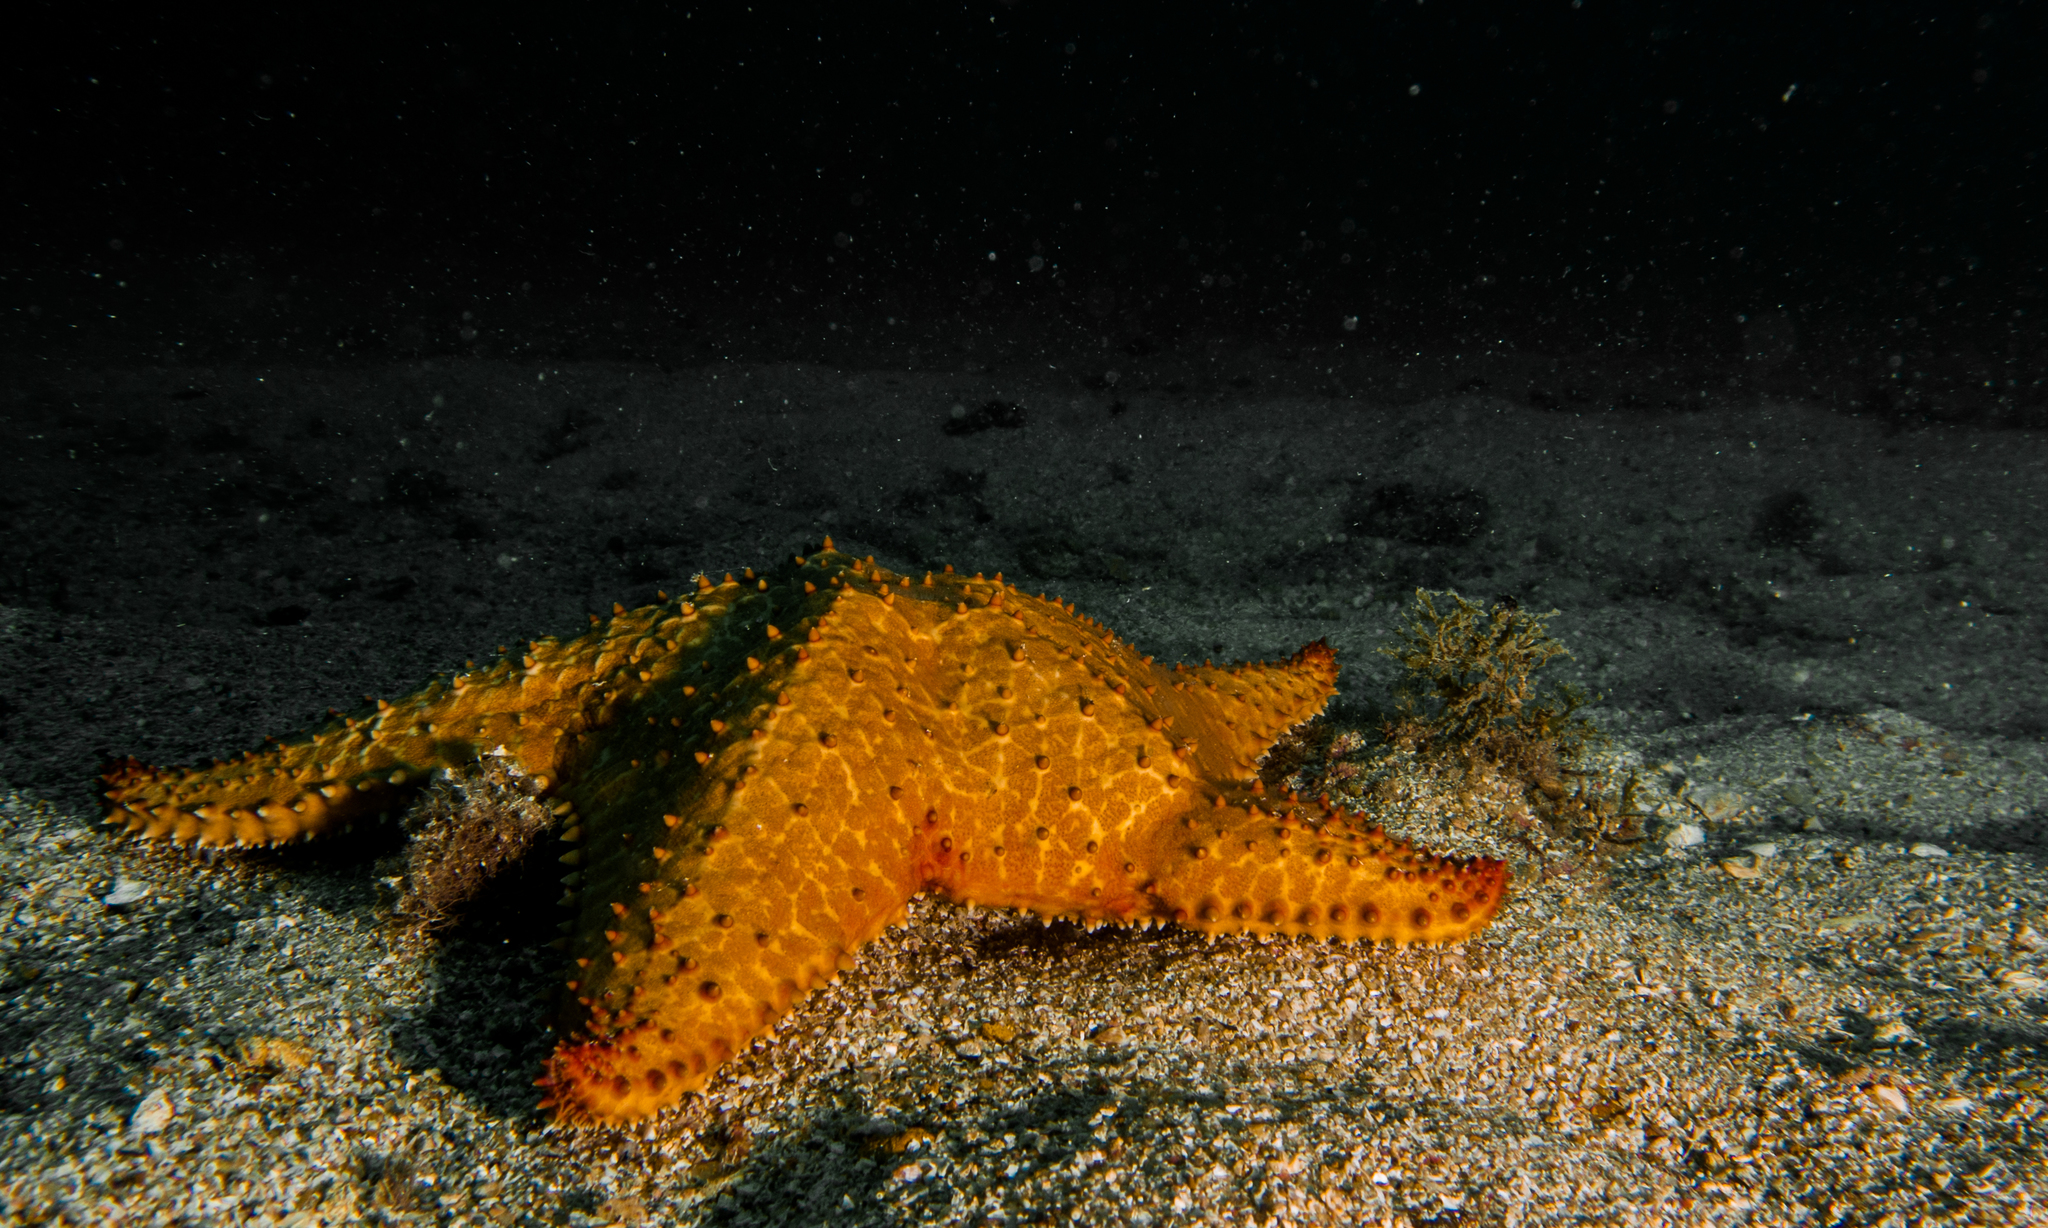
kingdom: Animalia
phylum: Echinodermata
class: Asteroidea
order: Valvatida
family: Oreasteridae
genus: Oreaster
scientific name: Oreaster reticulatus
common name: Cushion sea star
